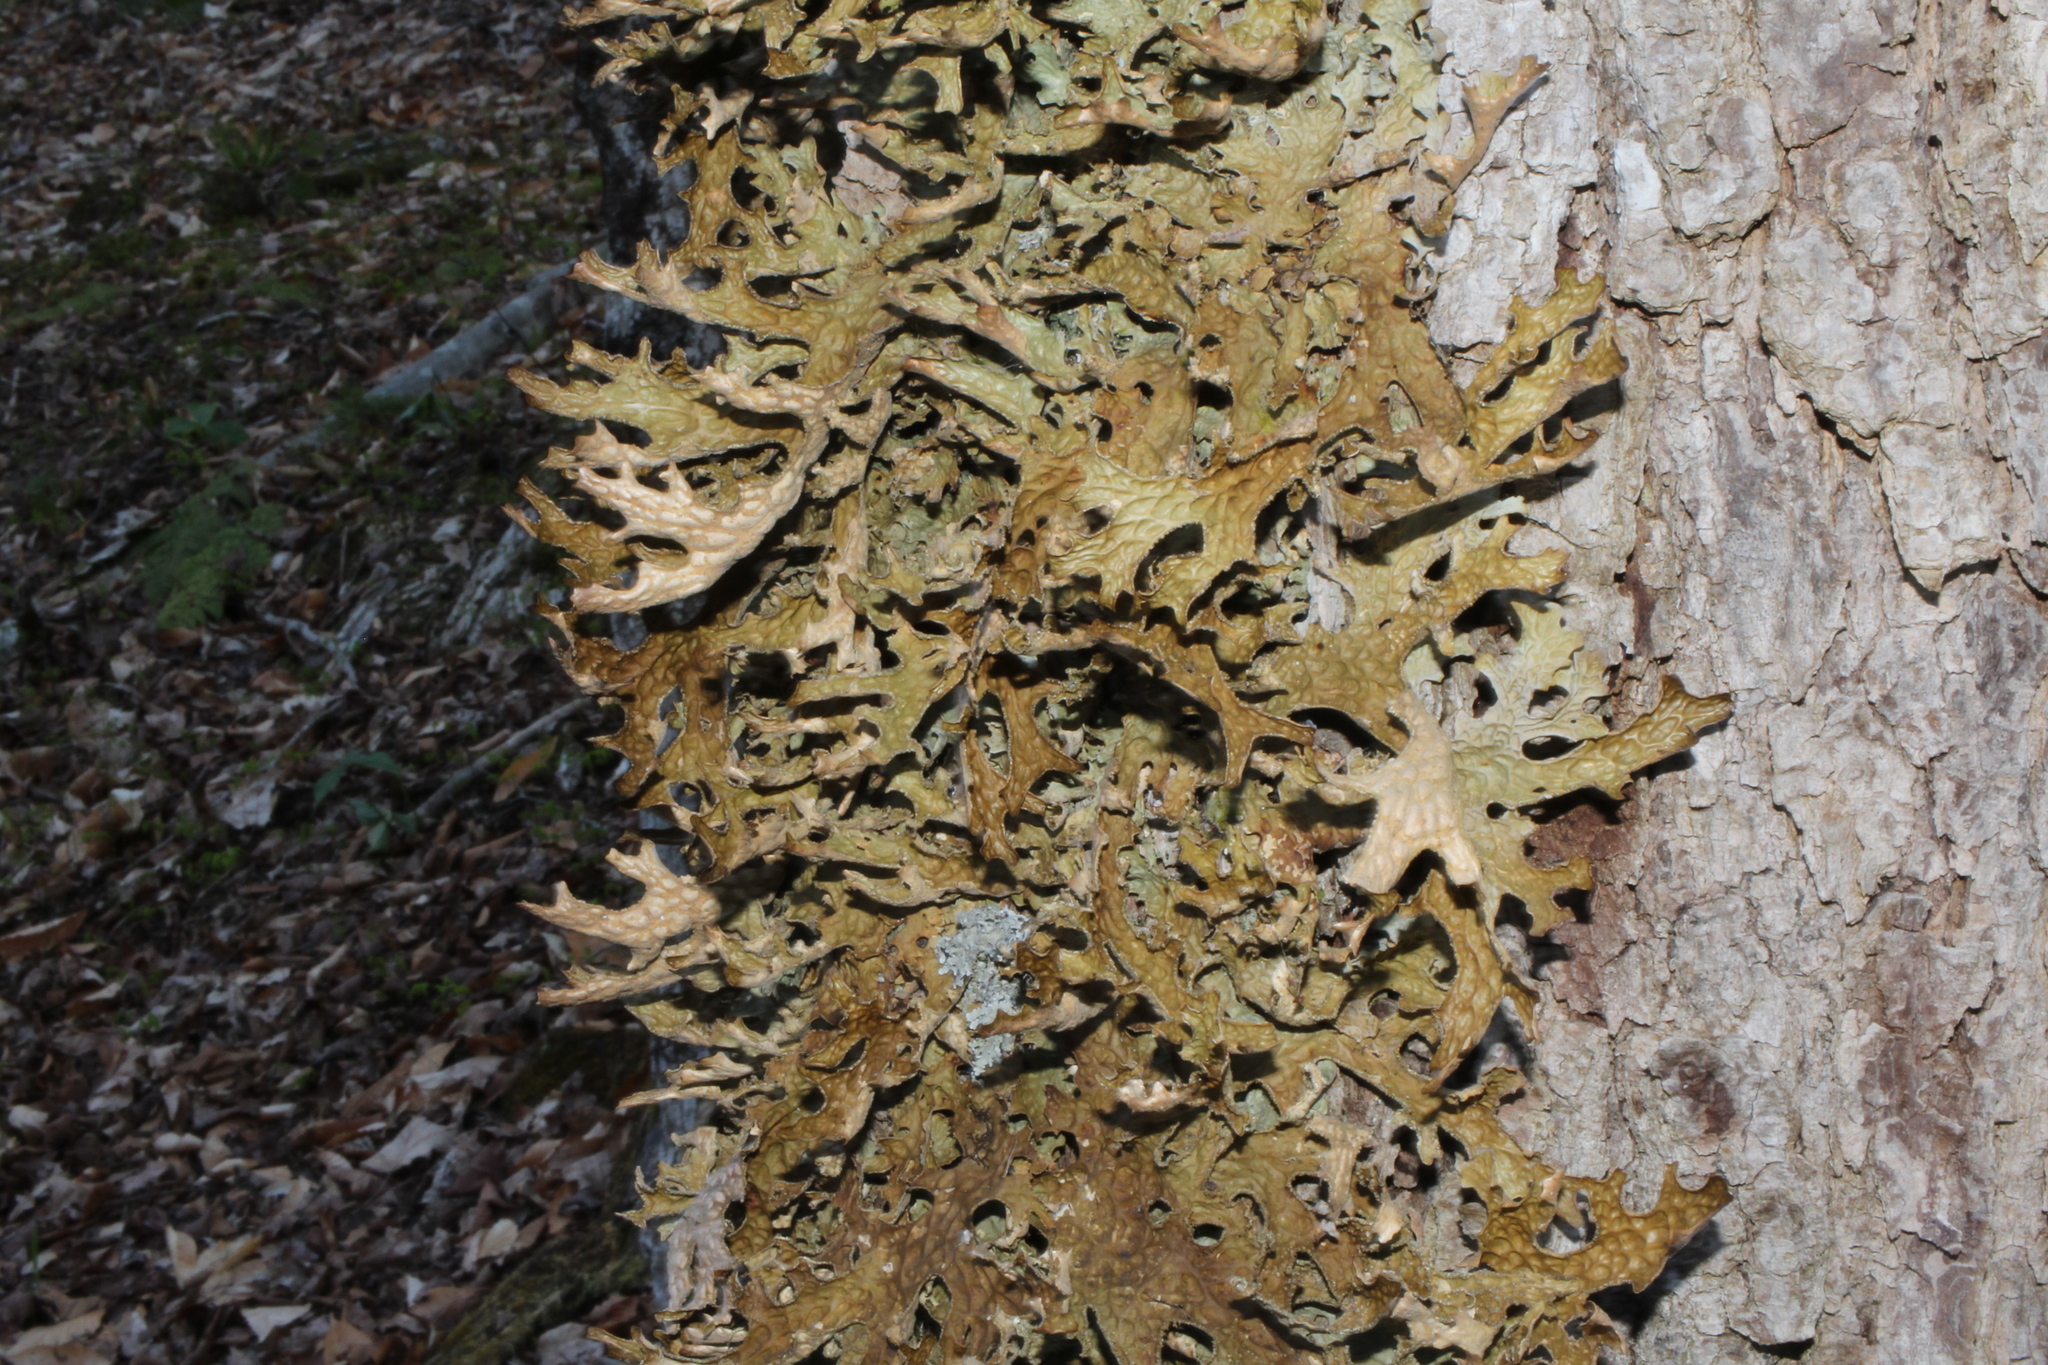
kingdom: Fungi
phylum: Ascomycota
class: Lecanoromycetes
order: Peltigerales
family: Lobariaceae
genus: Lobaria
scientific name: Lobaria pulmonaria
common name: Lungwort
